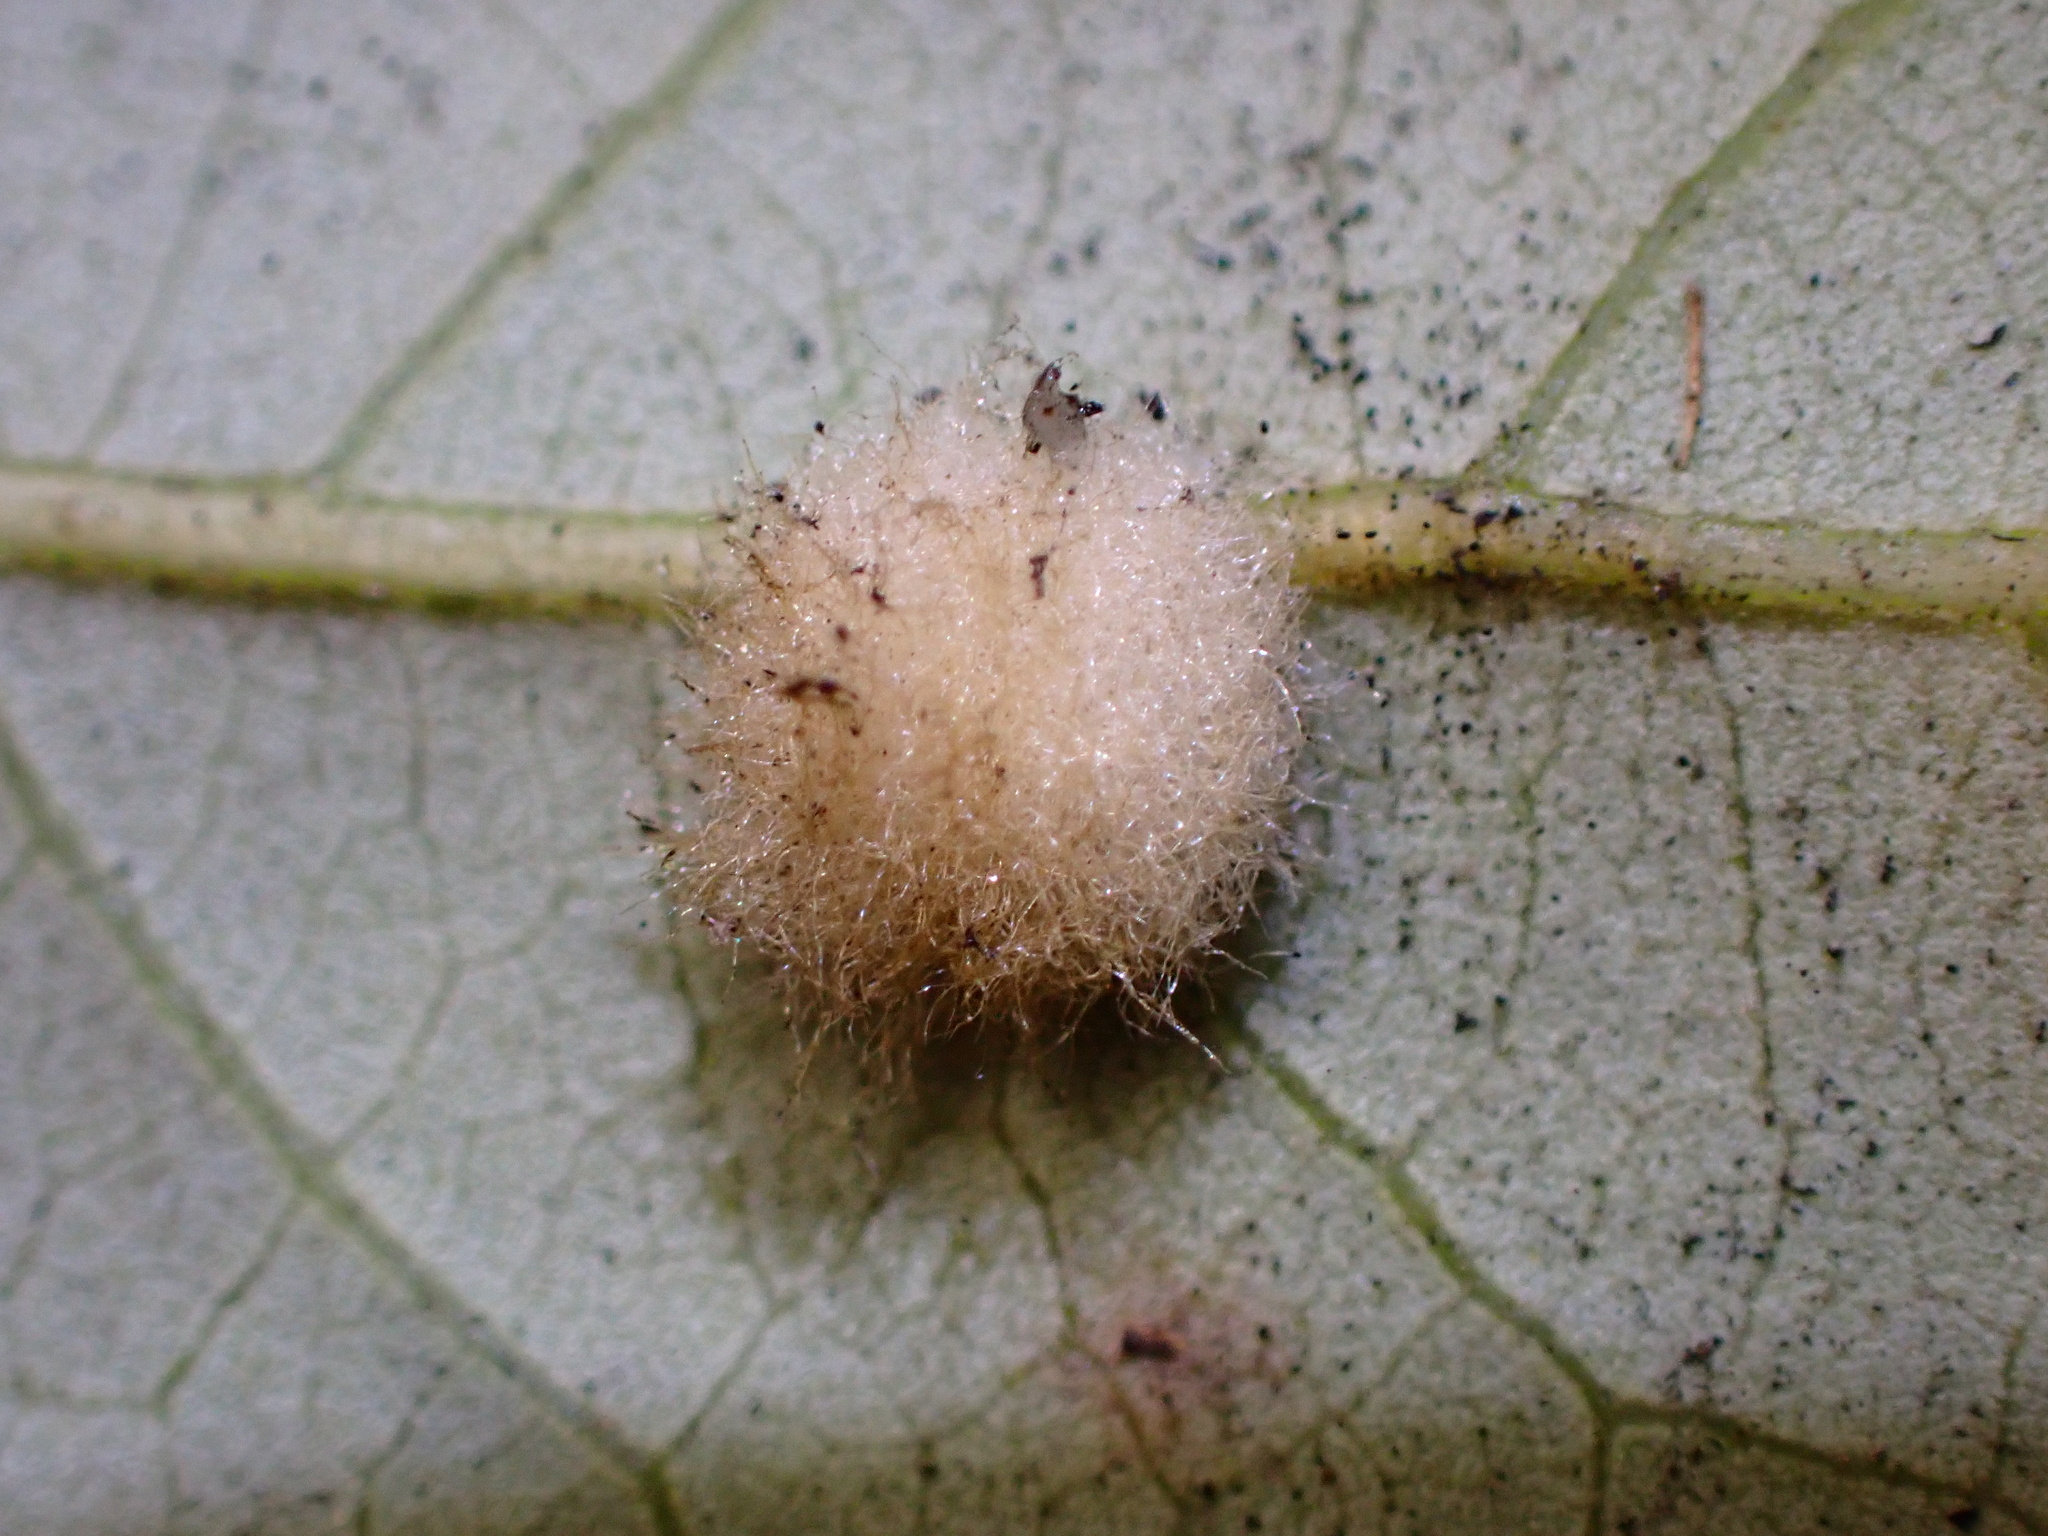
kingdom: Animalia
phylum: Arthropoda
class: Insecta
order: Hymenoptera
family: Cynipidae
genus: Andricus
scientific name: Andricus Druon quercuslanigerum
